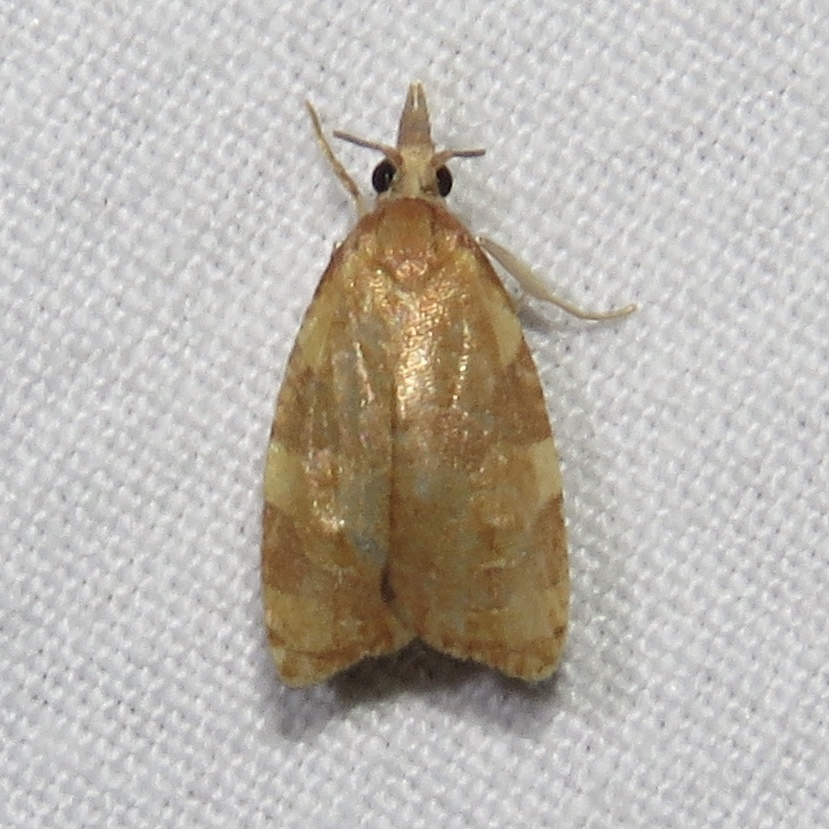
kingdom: Animalia
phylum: Arthropoda
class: Insecta
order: Lepidoptera
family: Tortricidae
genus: Cenopis
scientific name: Cenopis diluticostana
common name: Spring dead-leaf roller moth
